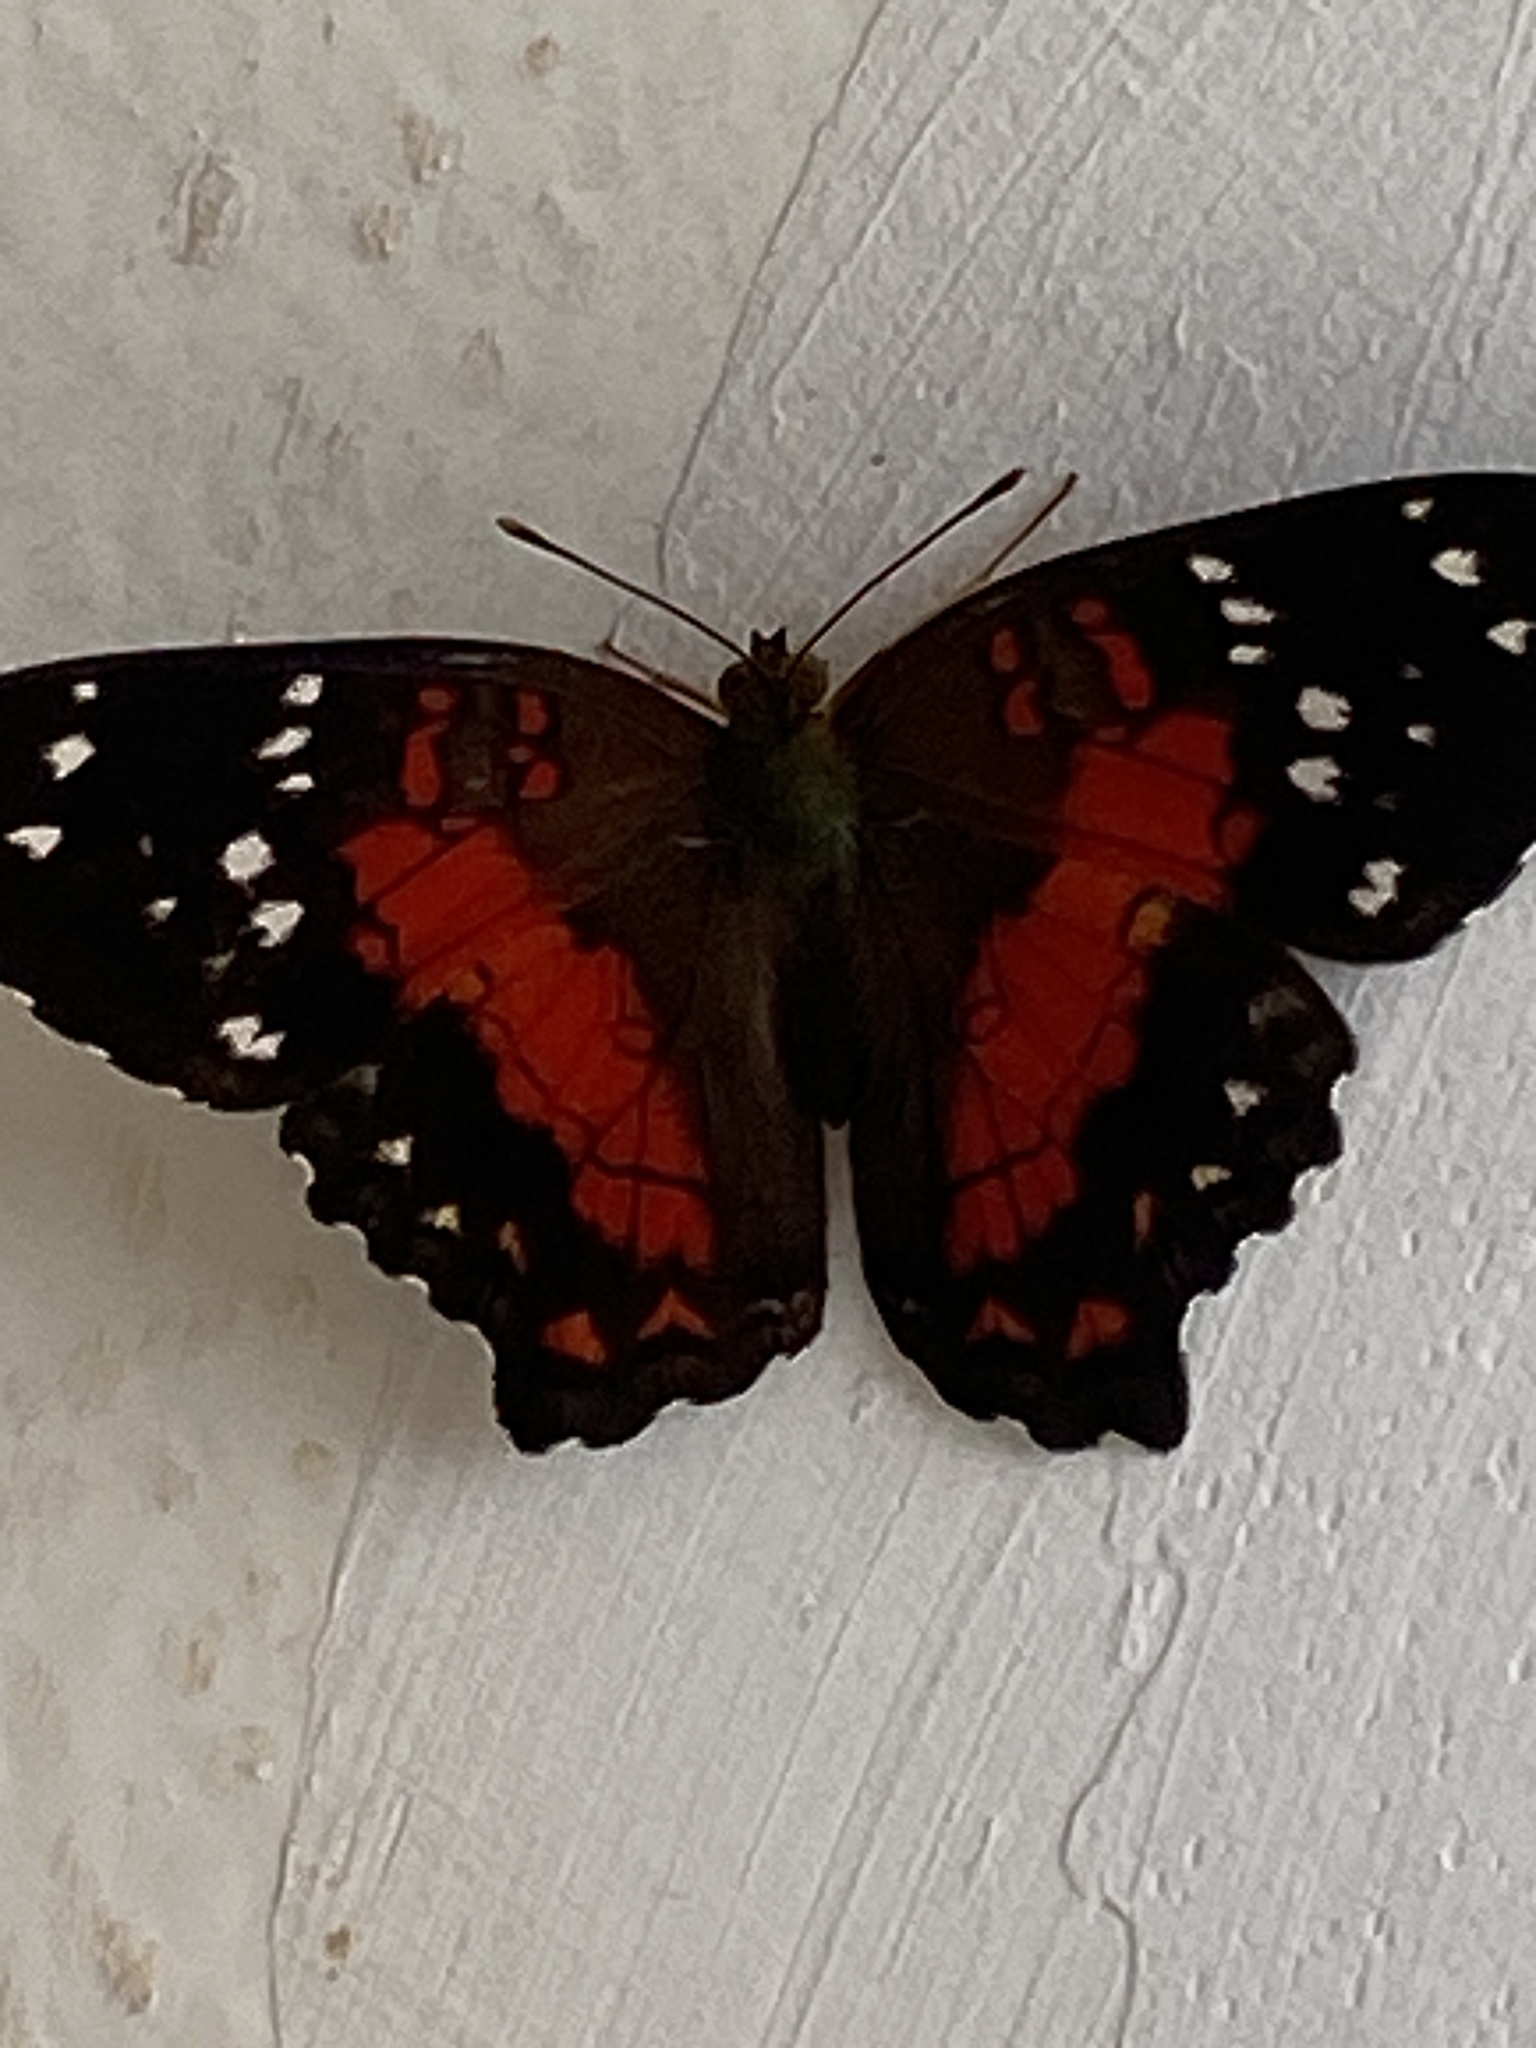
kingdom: Animalia
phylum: Arthropoda
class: Insecta
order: Lepidoptera
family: Nymphalidae
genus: Anartia
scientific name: Anartia amathea
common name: Red peacock
